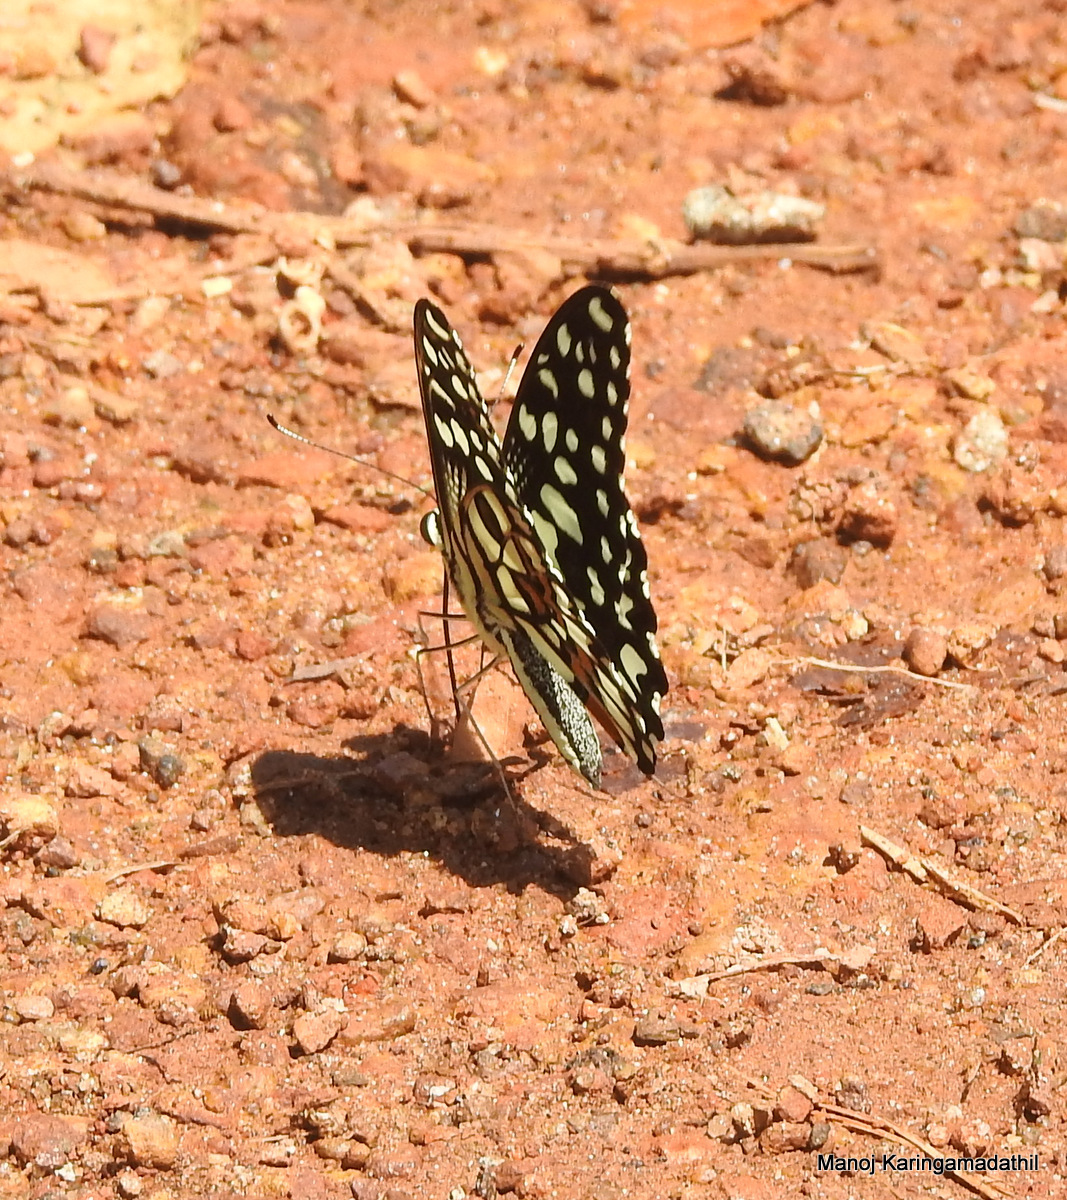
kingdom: Animalia
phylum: Arthropoda
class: Insecta
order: Lepidoptera
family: Papilionidae
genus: Papilio
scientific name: Papilio demoleus
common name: Lime butterfly
